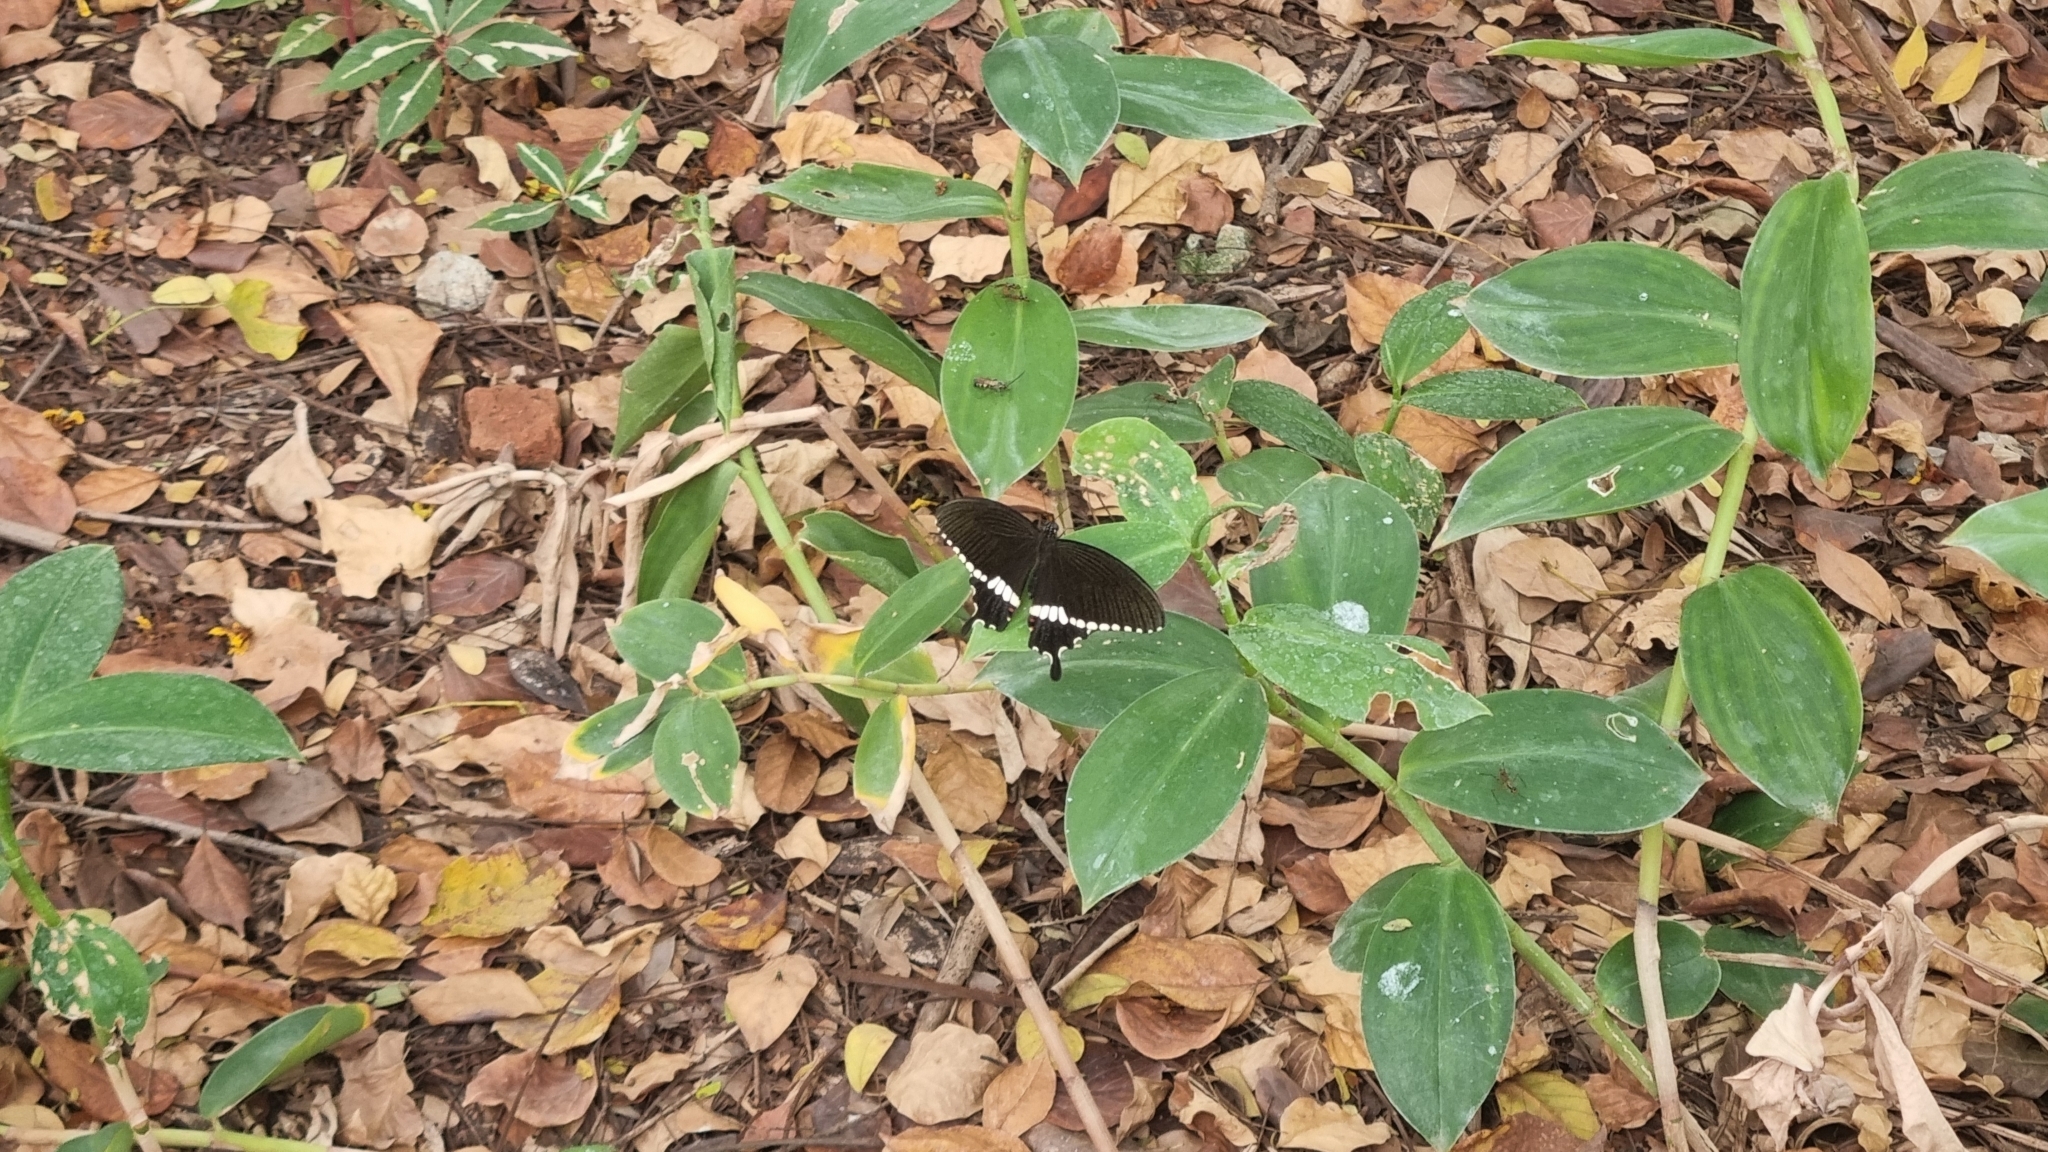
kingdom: Animalia
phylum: Arthropoda
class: Insecta
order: Lepidoptera
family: Papilionidae
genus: Papilio
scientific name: Papilio polytes
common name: Common mormon
